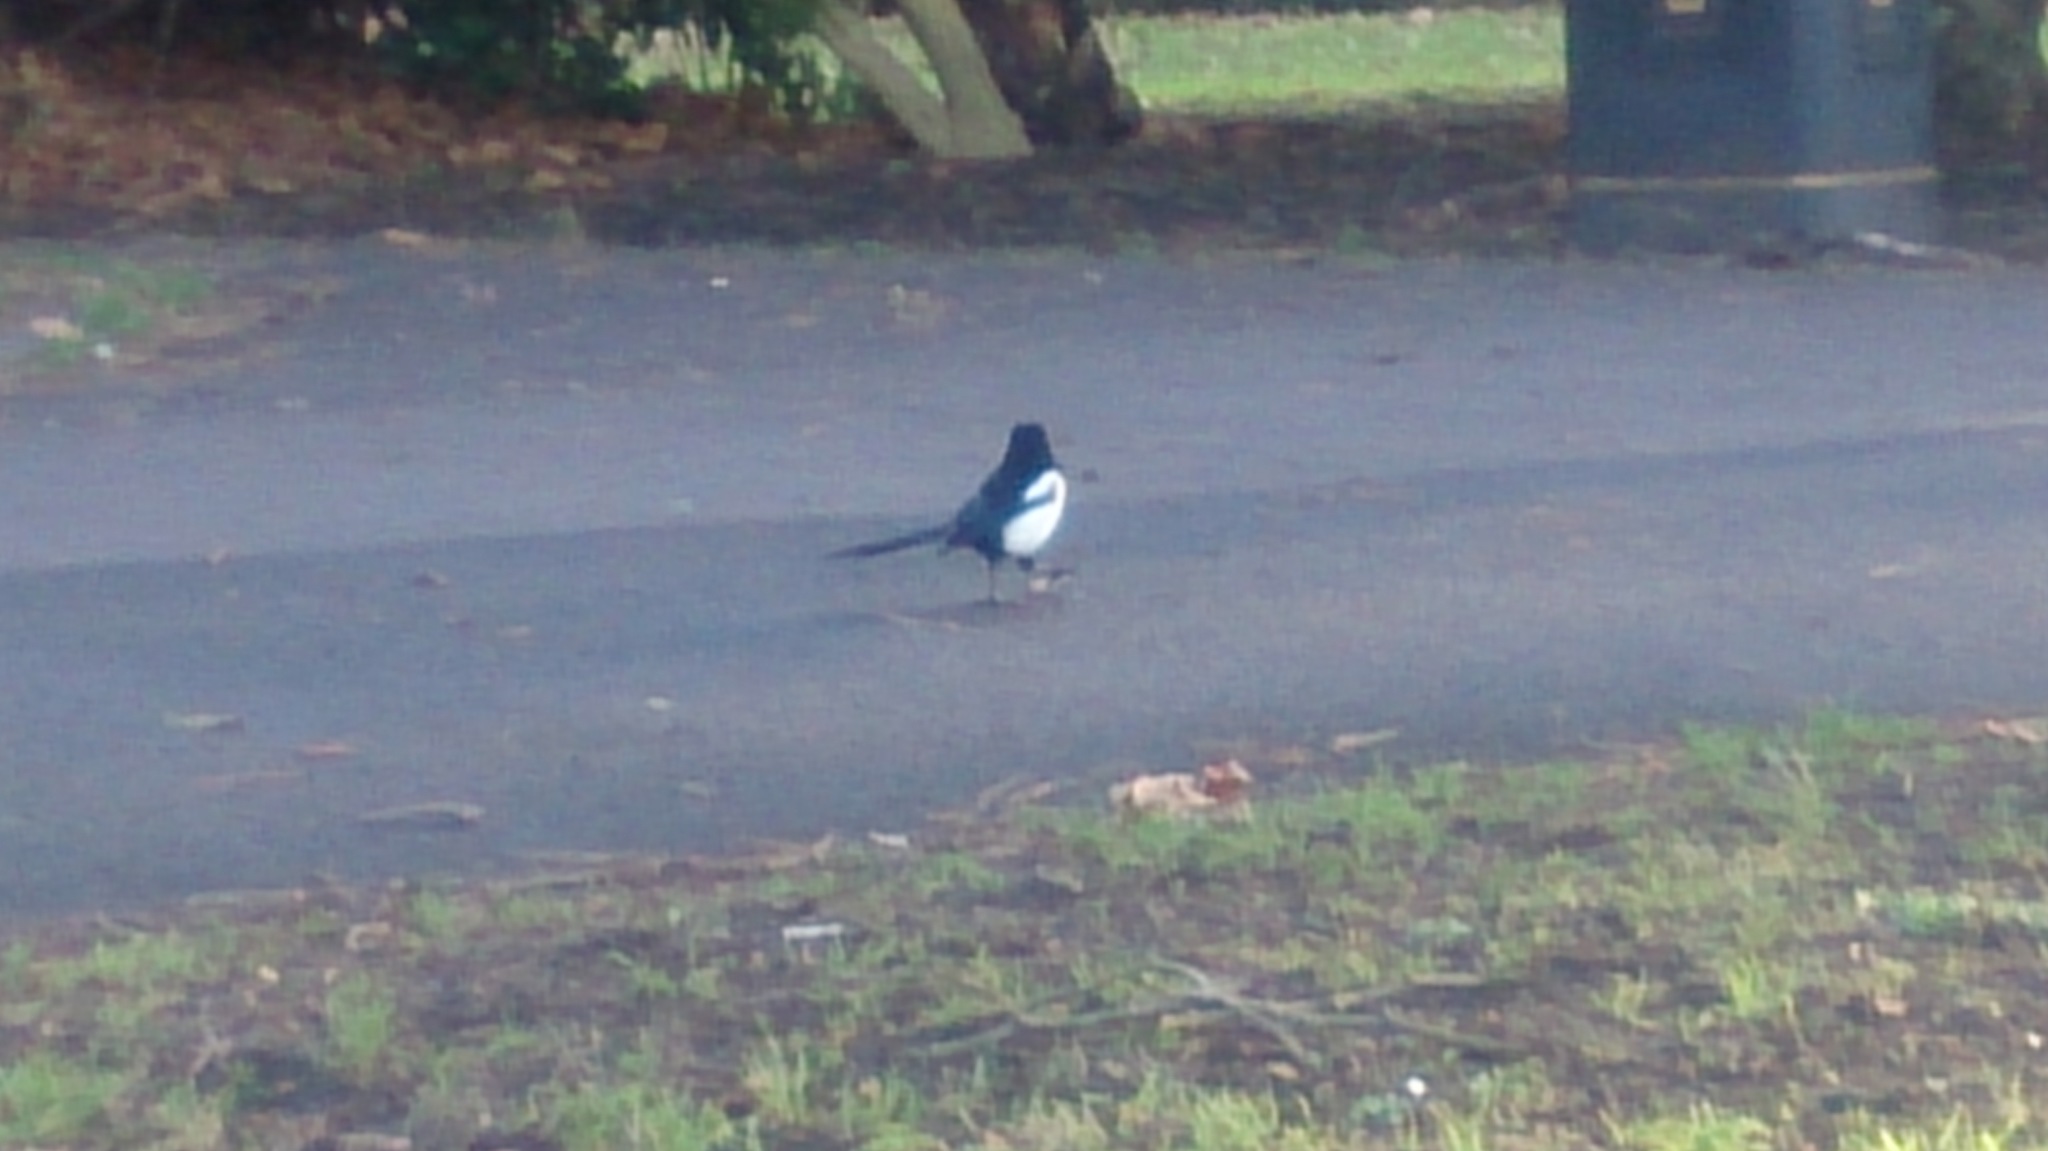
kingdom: Animalia
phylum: Chordata
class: Aves
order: Passeriformes
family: Corvidae
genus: Pica
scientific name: Pica pica
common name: Eurasian magpie
